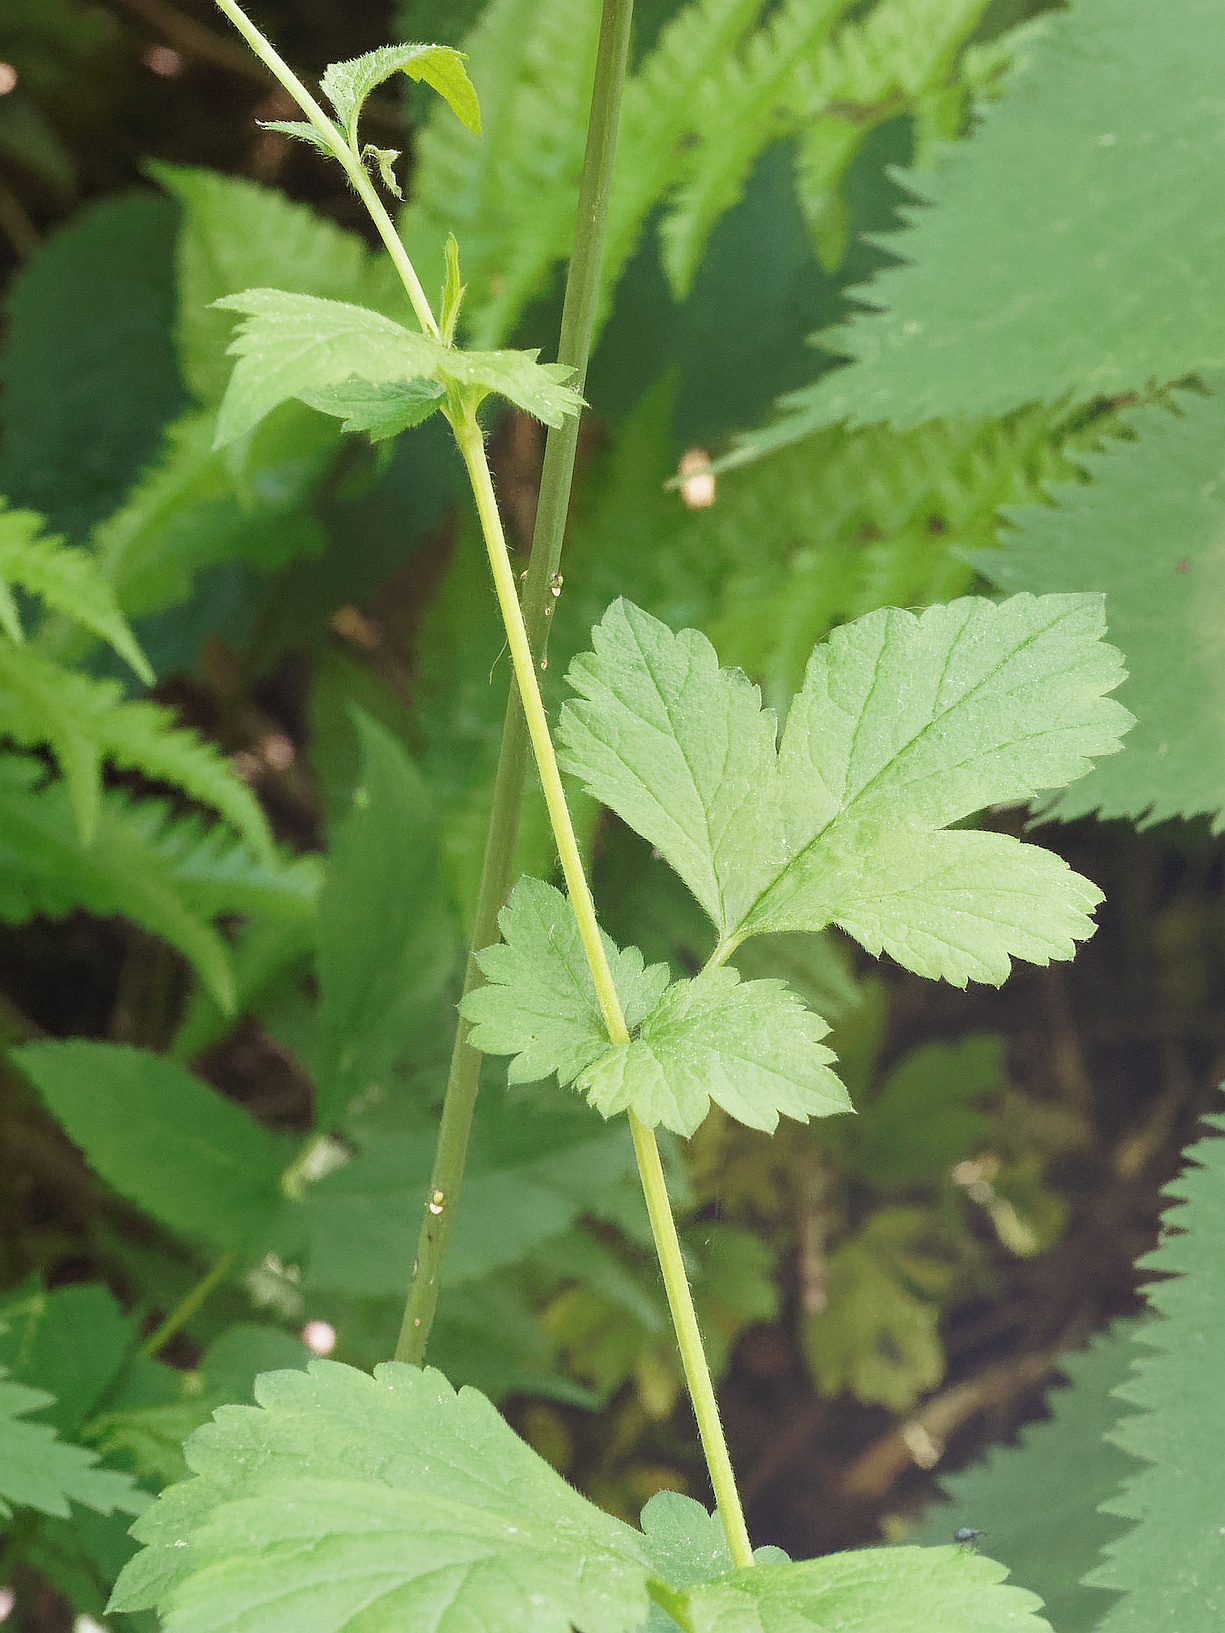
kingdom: Plantae
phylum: Tracheophyta
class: Magnoliopsida
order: Rosales
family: Rosaceae
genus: Geum
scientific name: Geum urbanum
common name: Wood avens
